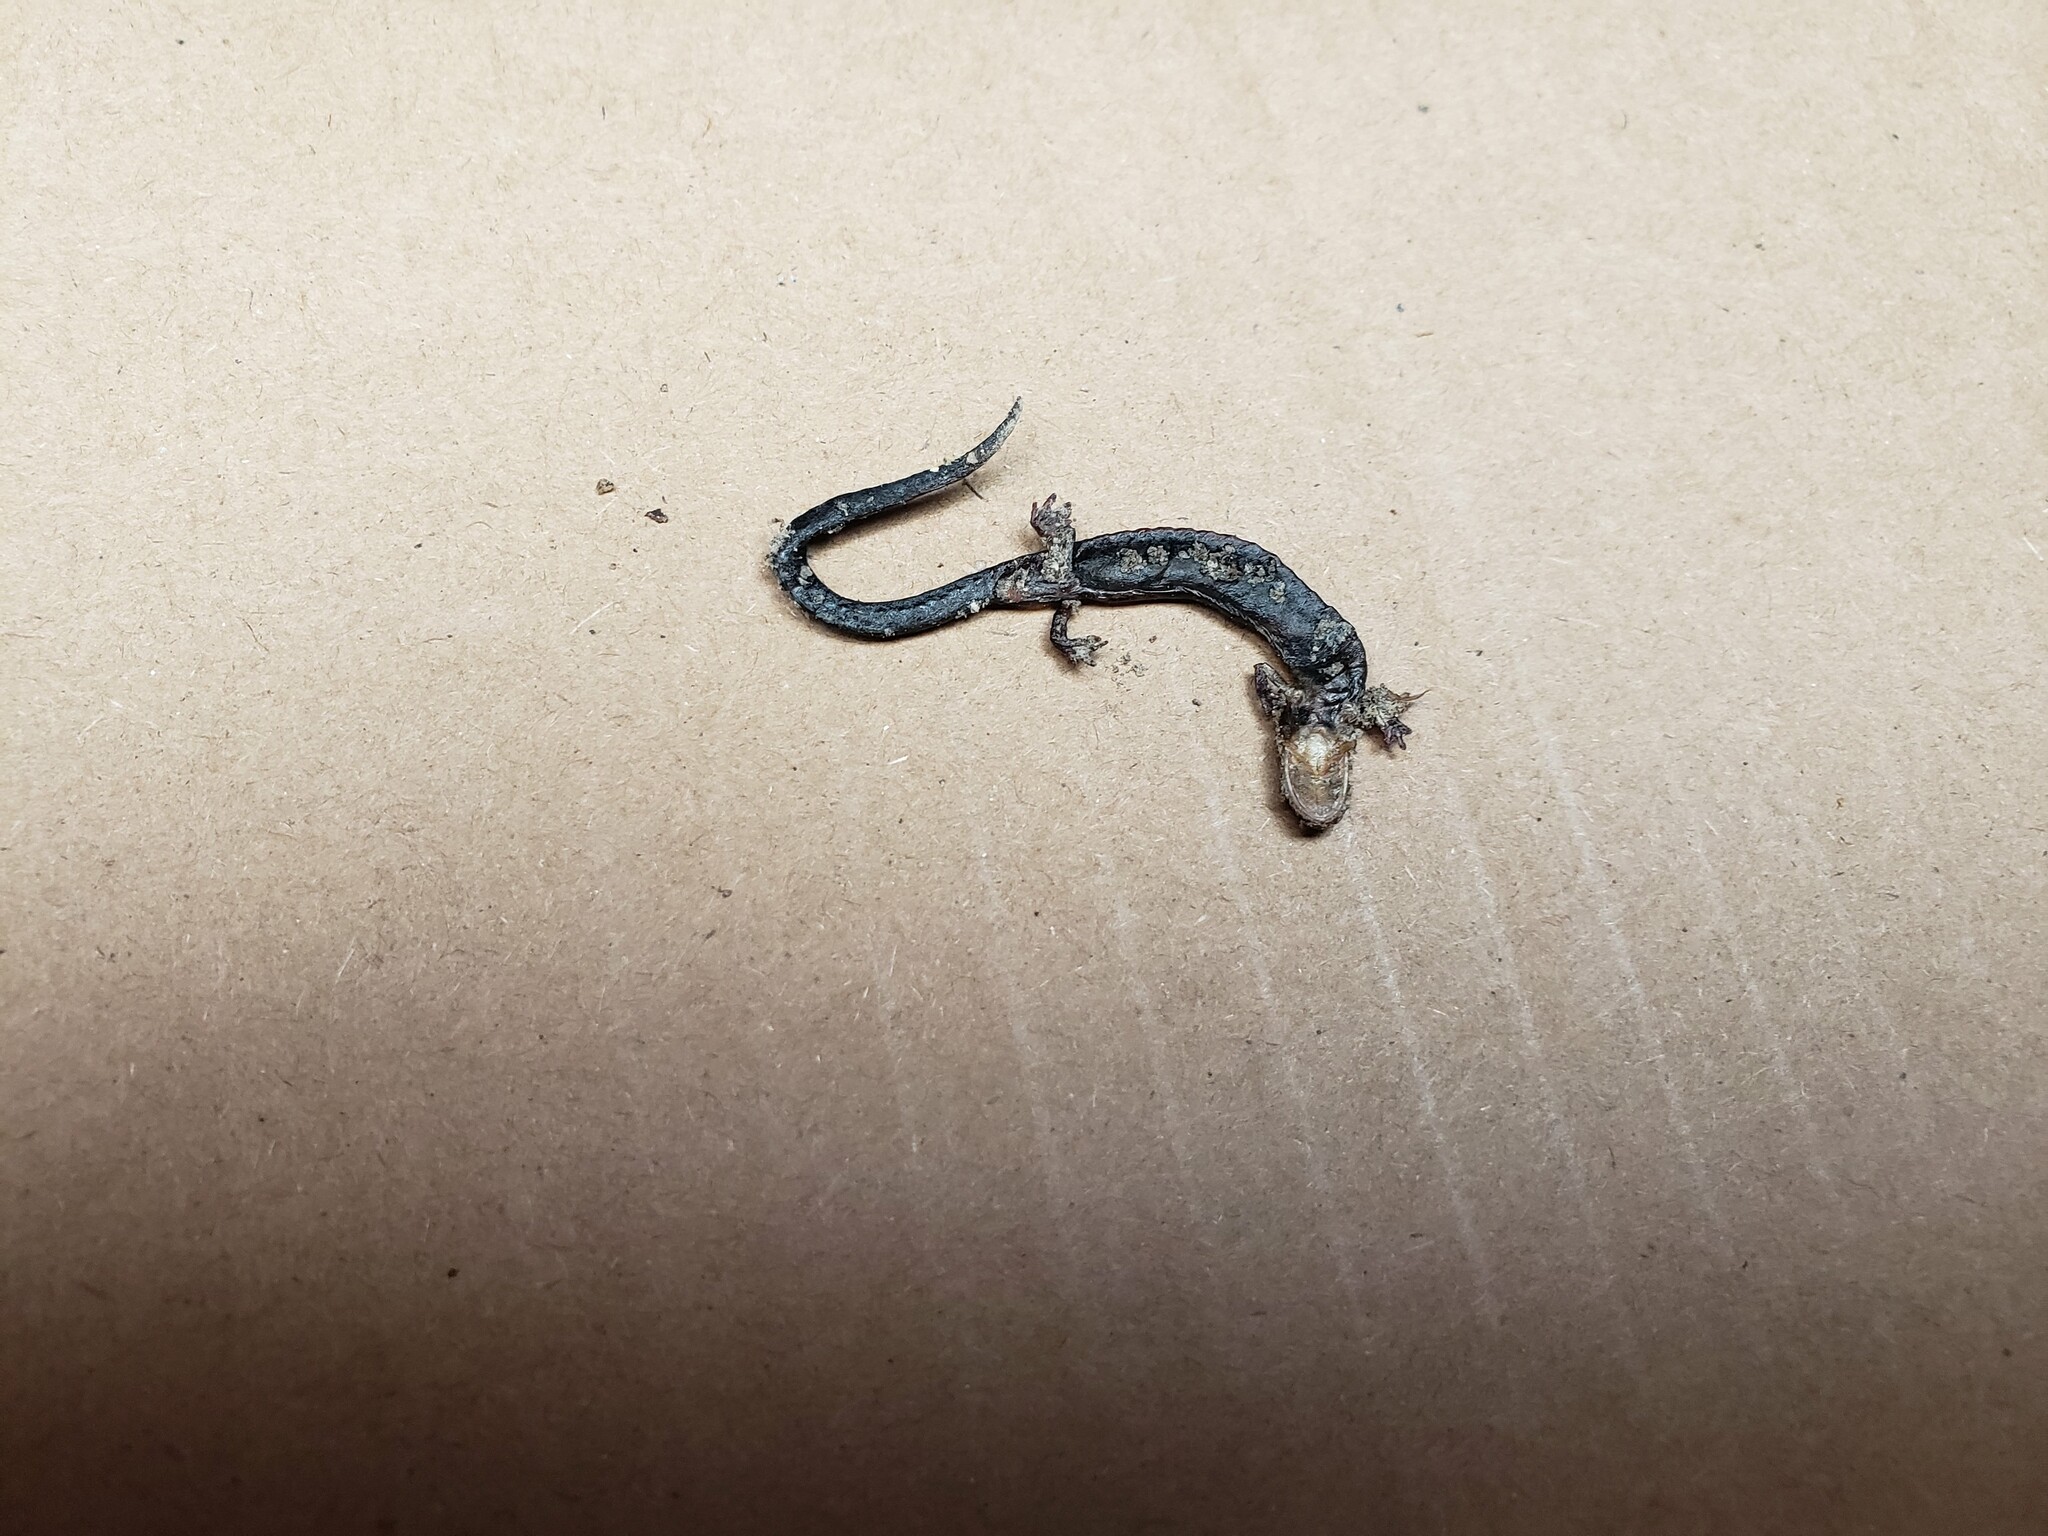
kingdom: Animalia
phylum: Chordata
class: Amphibia
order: Caudata
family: Plethodontidae
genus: Plethodon
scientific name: Plethodon cinereus
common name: Redback salamander
